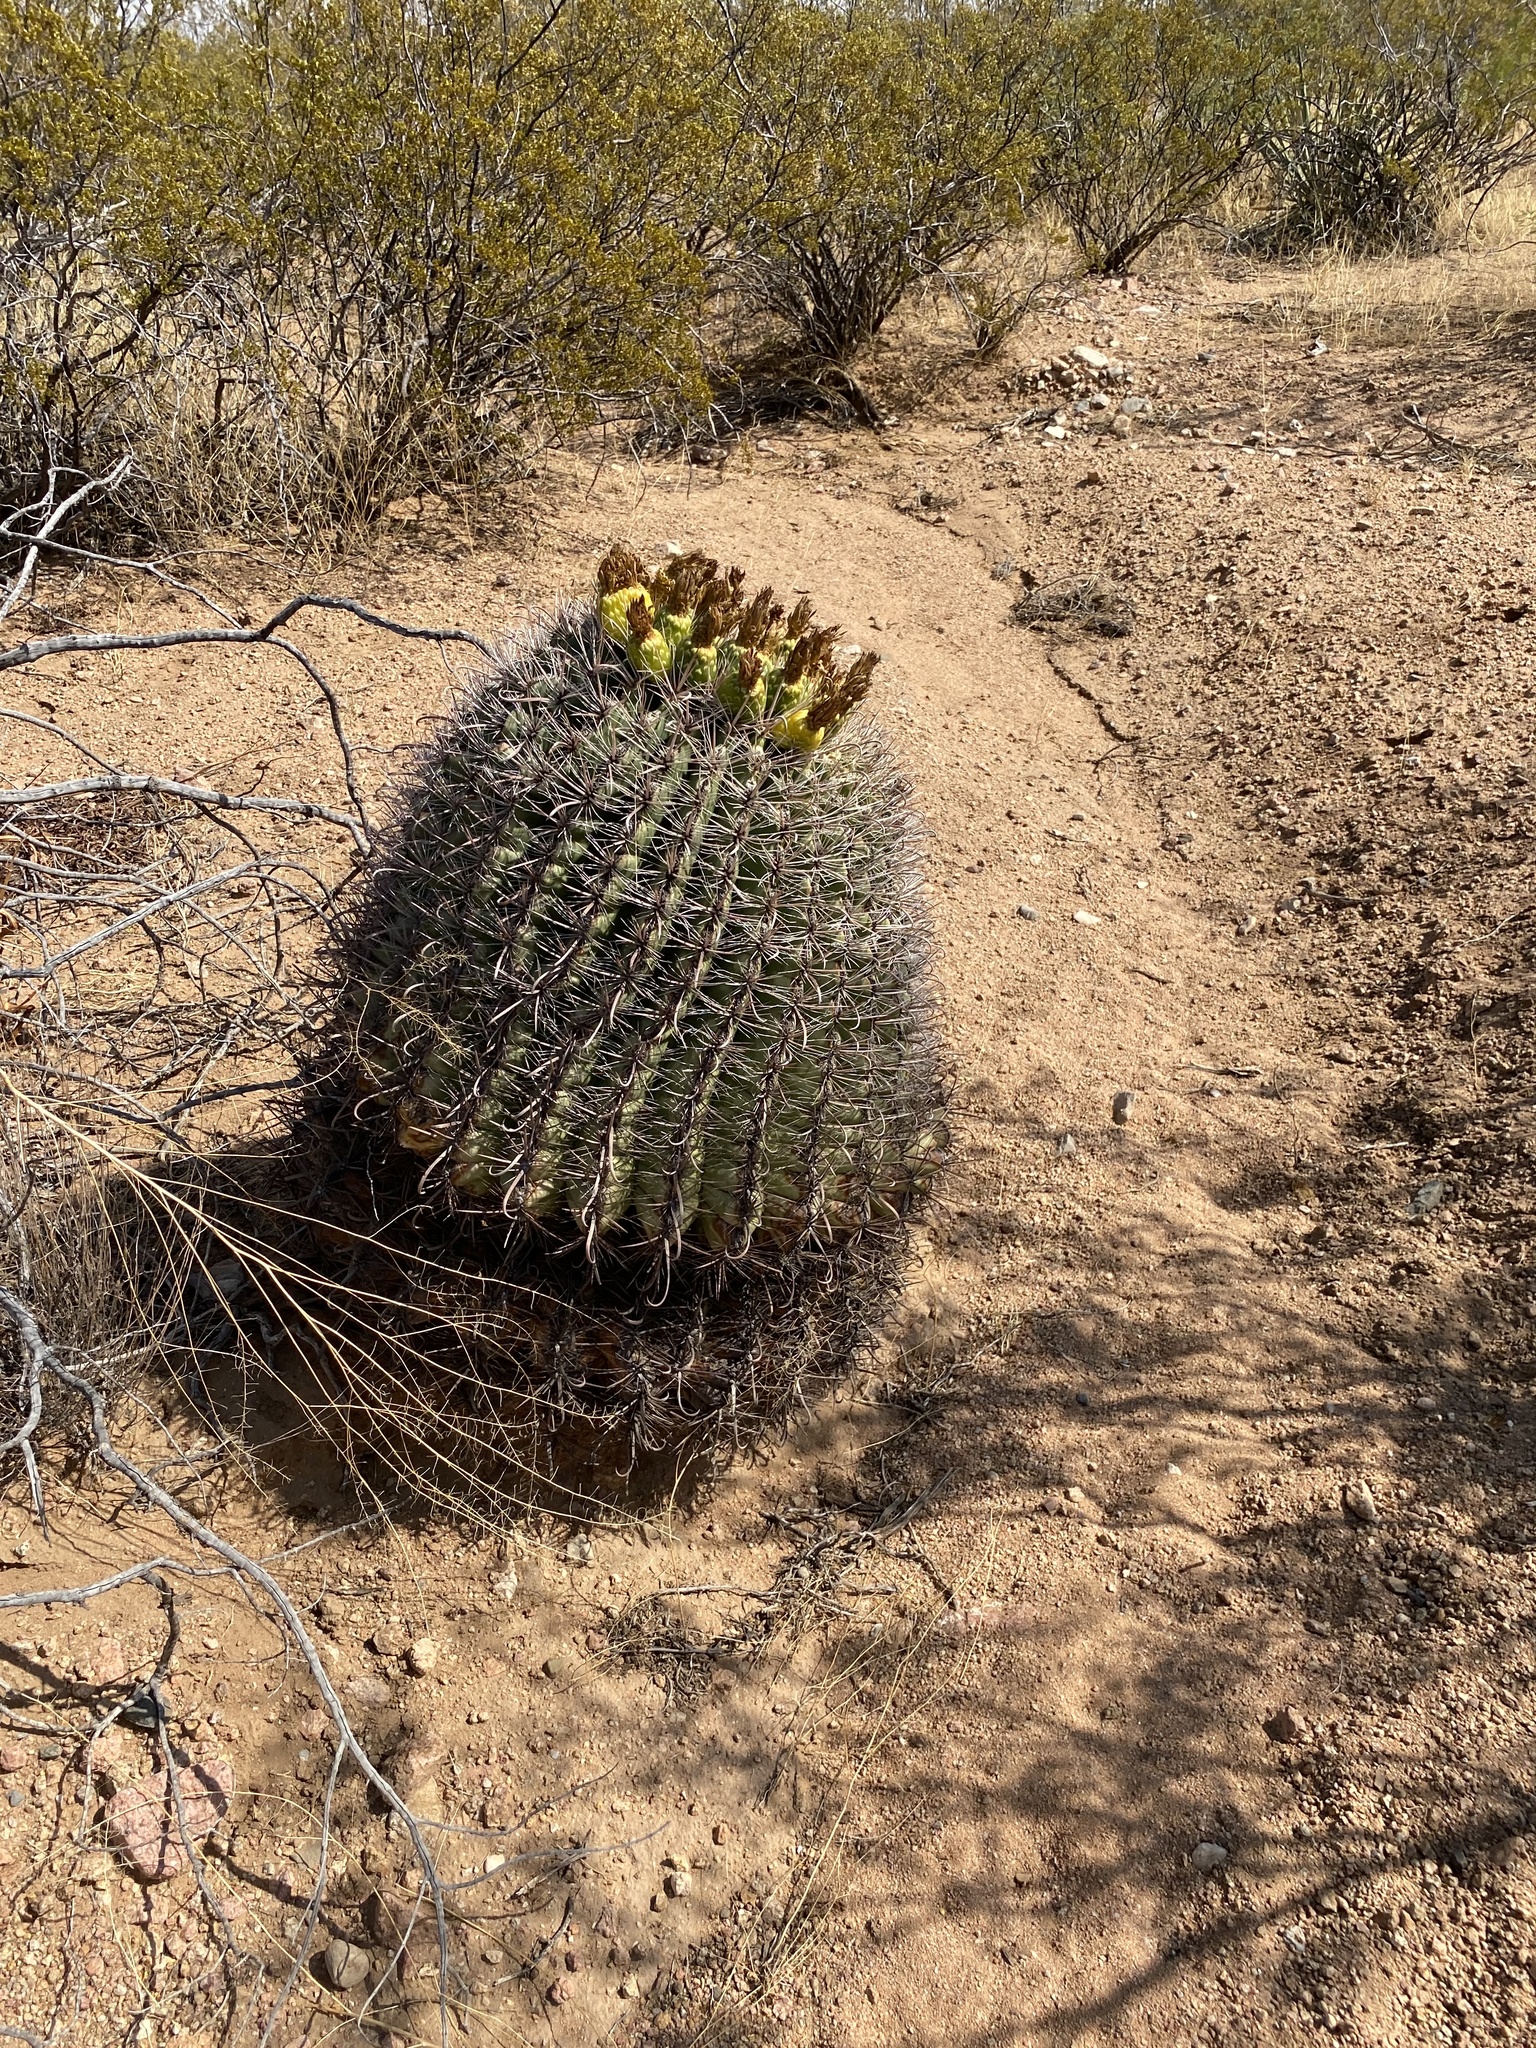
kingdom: Plantae
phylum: Tracheophyta
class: Magnoliopsida
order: Caryophyllales
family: Cactaceae
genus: Ferocactus
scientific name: Ferocactus wislizeni
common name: Candy barrel cactus
